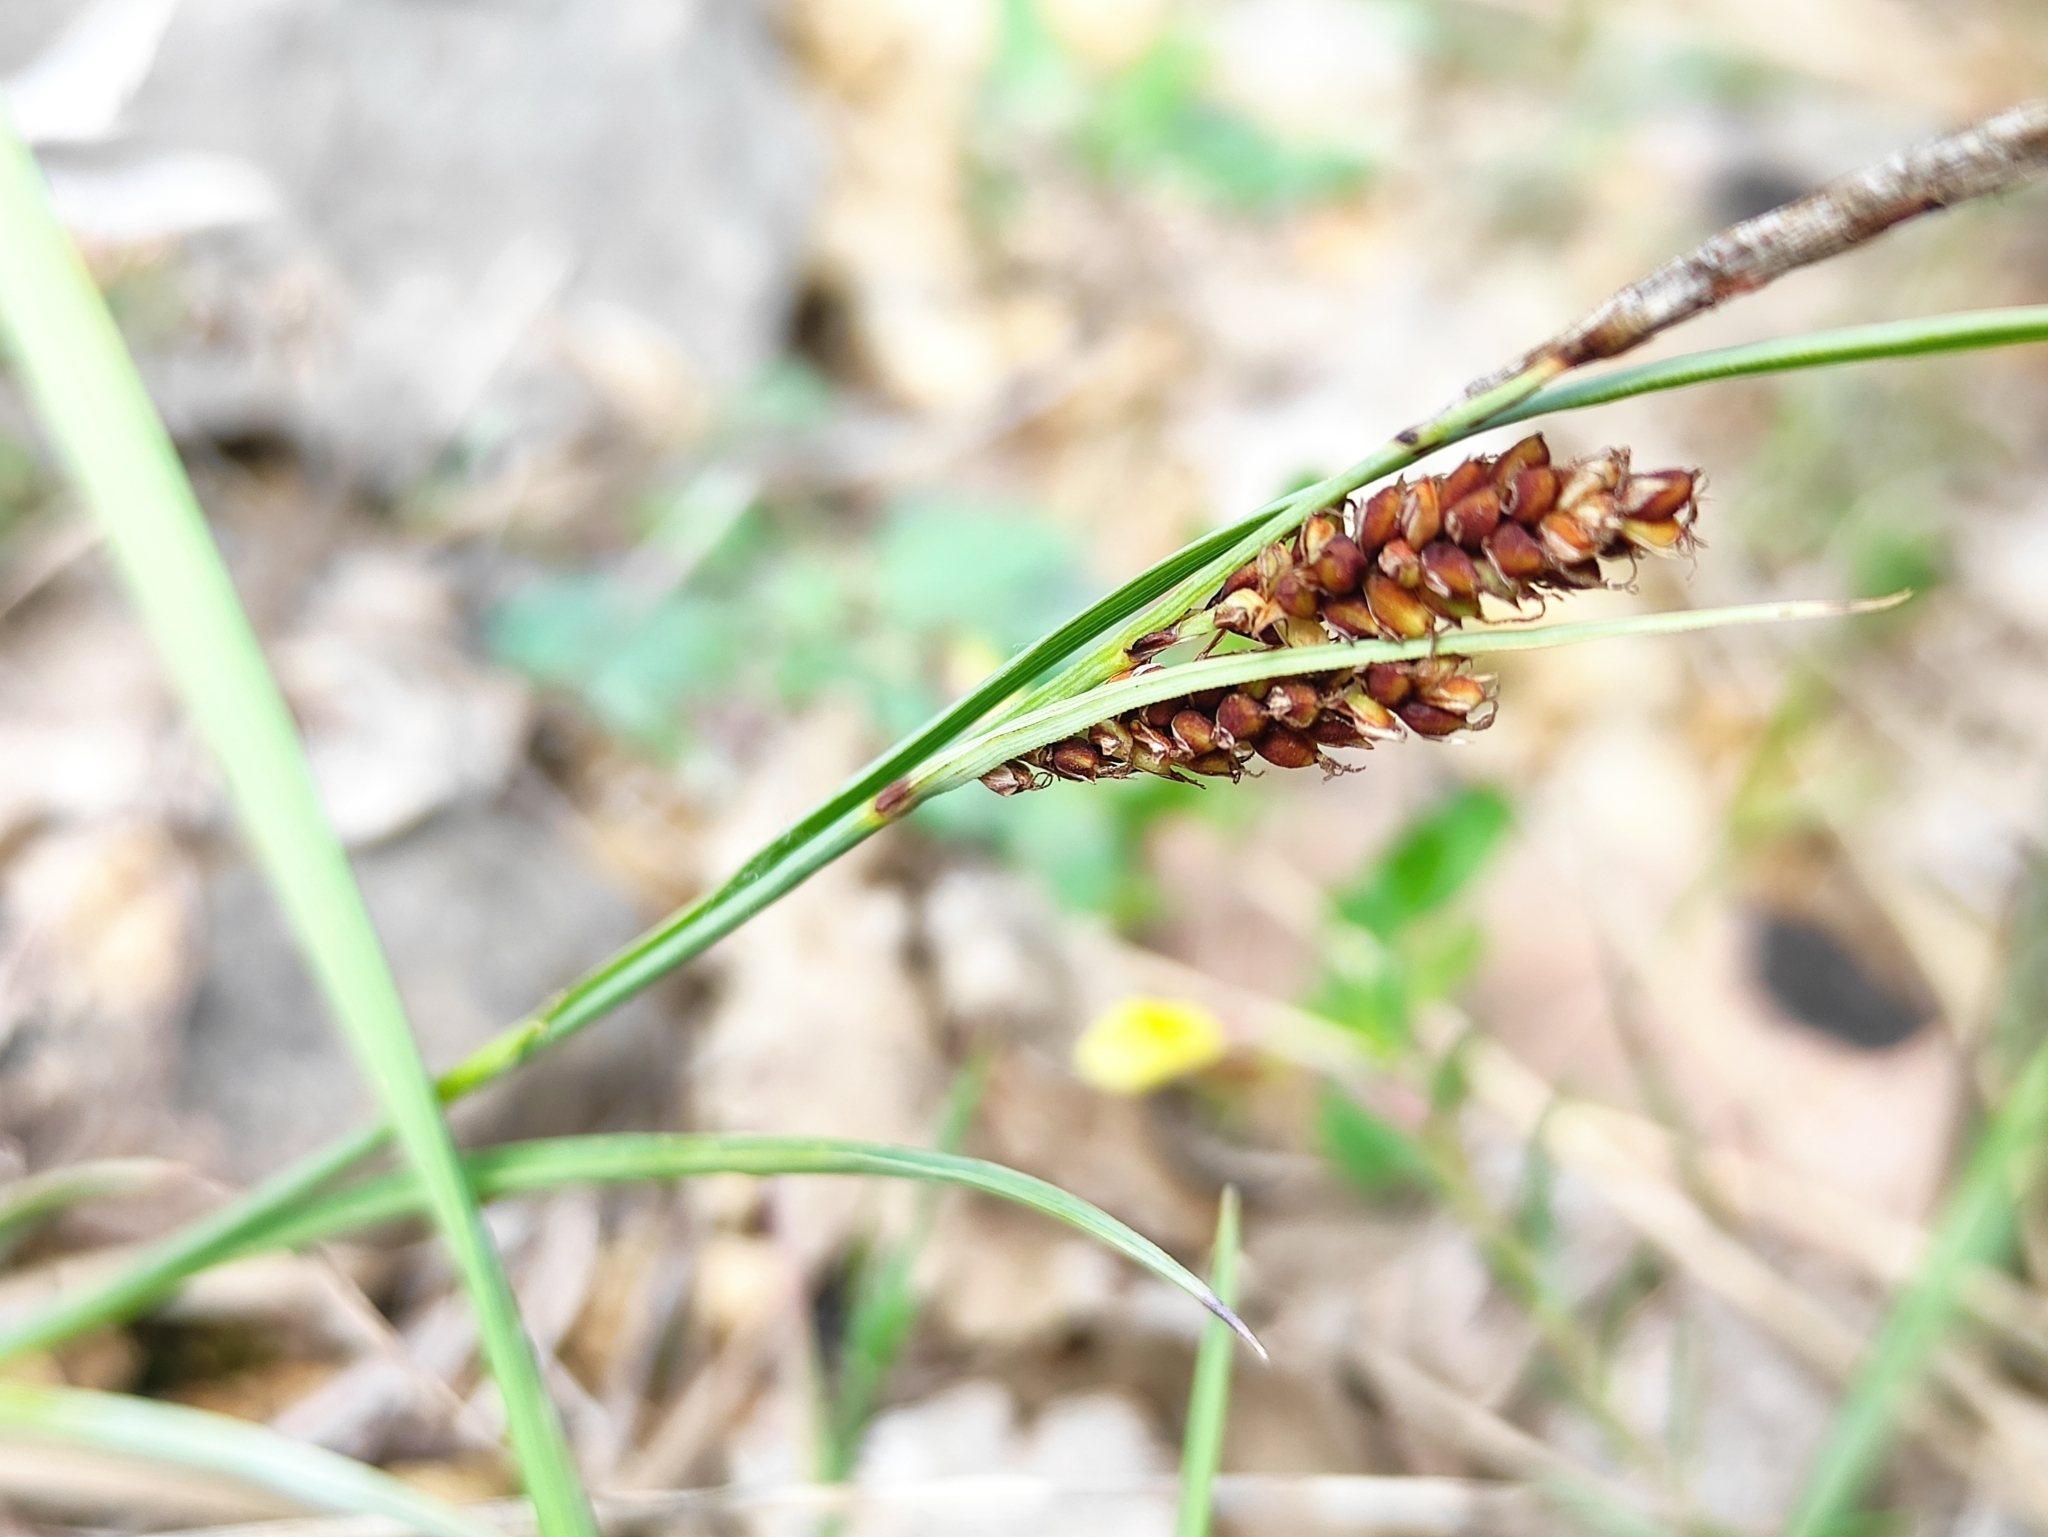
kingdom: Plantae
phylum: Tracheophyta
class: Liliopsida
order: Poales
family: Cyperaceae
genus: Carex
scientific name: Carex flacca
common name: Glaucous sedge
